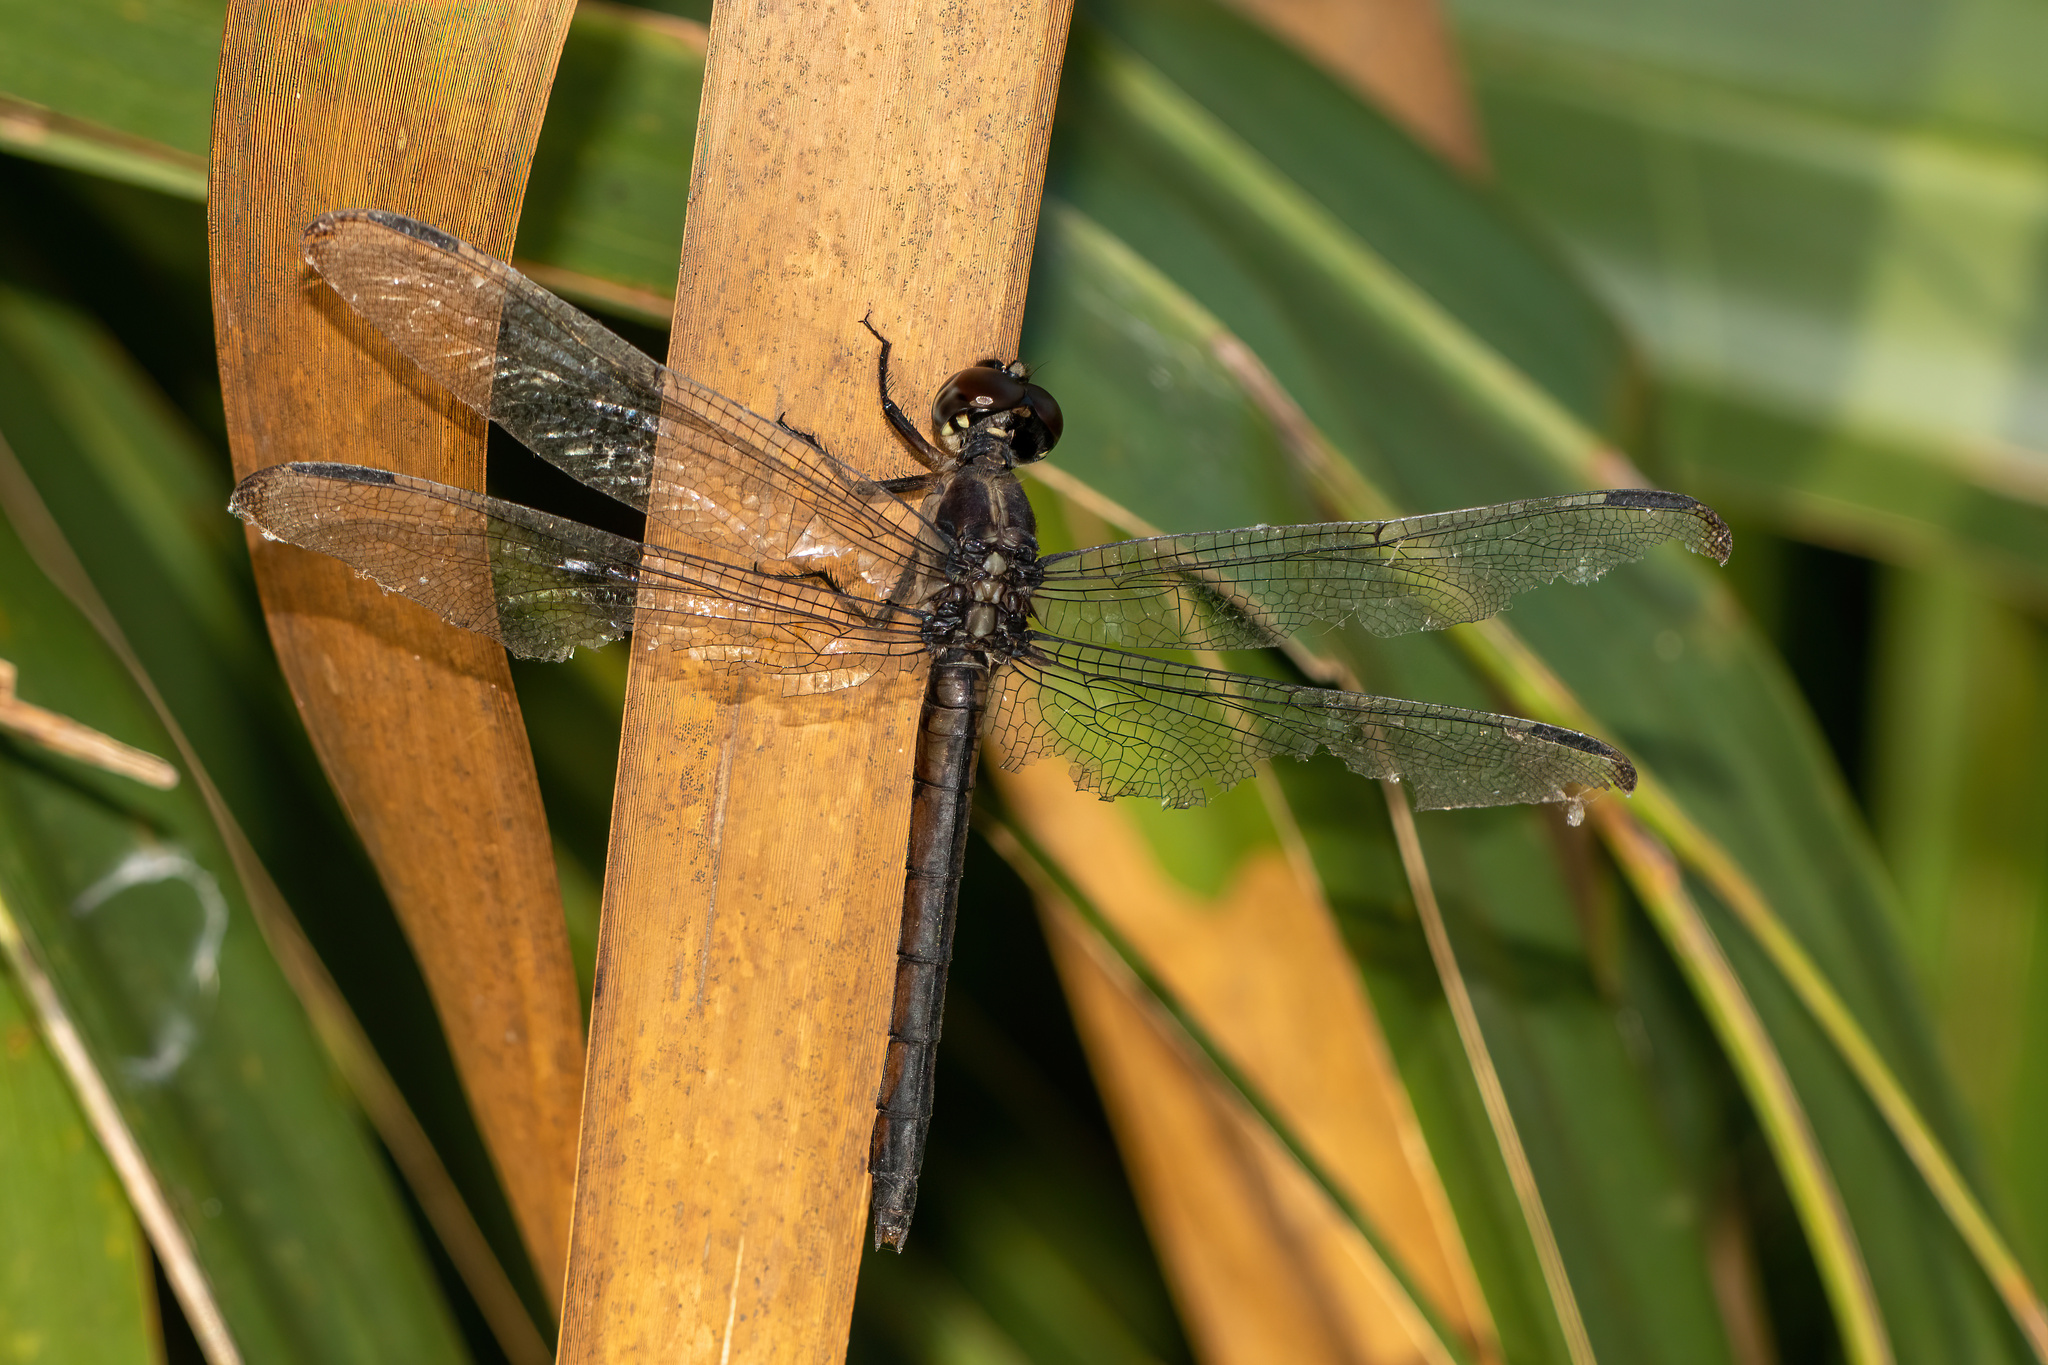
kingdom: Animalia
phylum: Arthropoda
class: Insecta
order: Odonata
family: Libellulidae
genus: Libellula
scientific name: Libellula incesta
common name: Slaty skimmer
